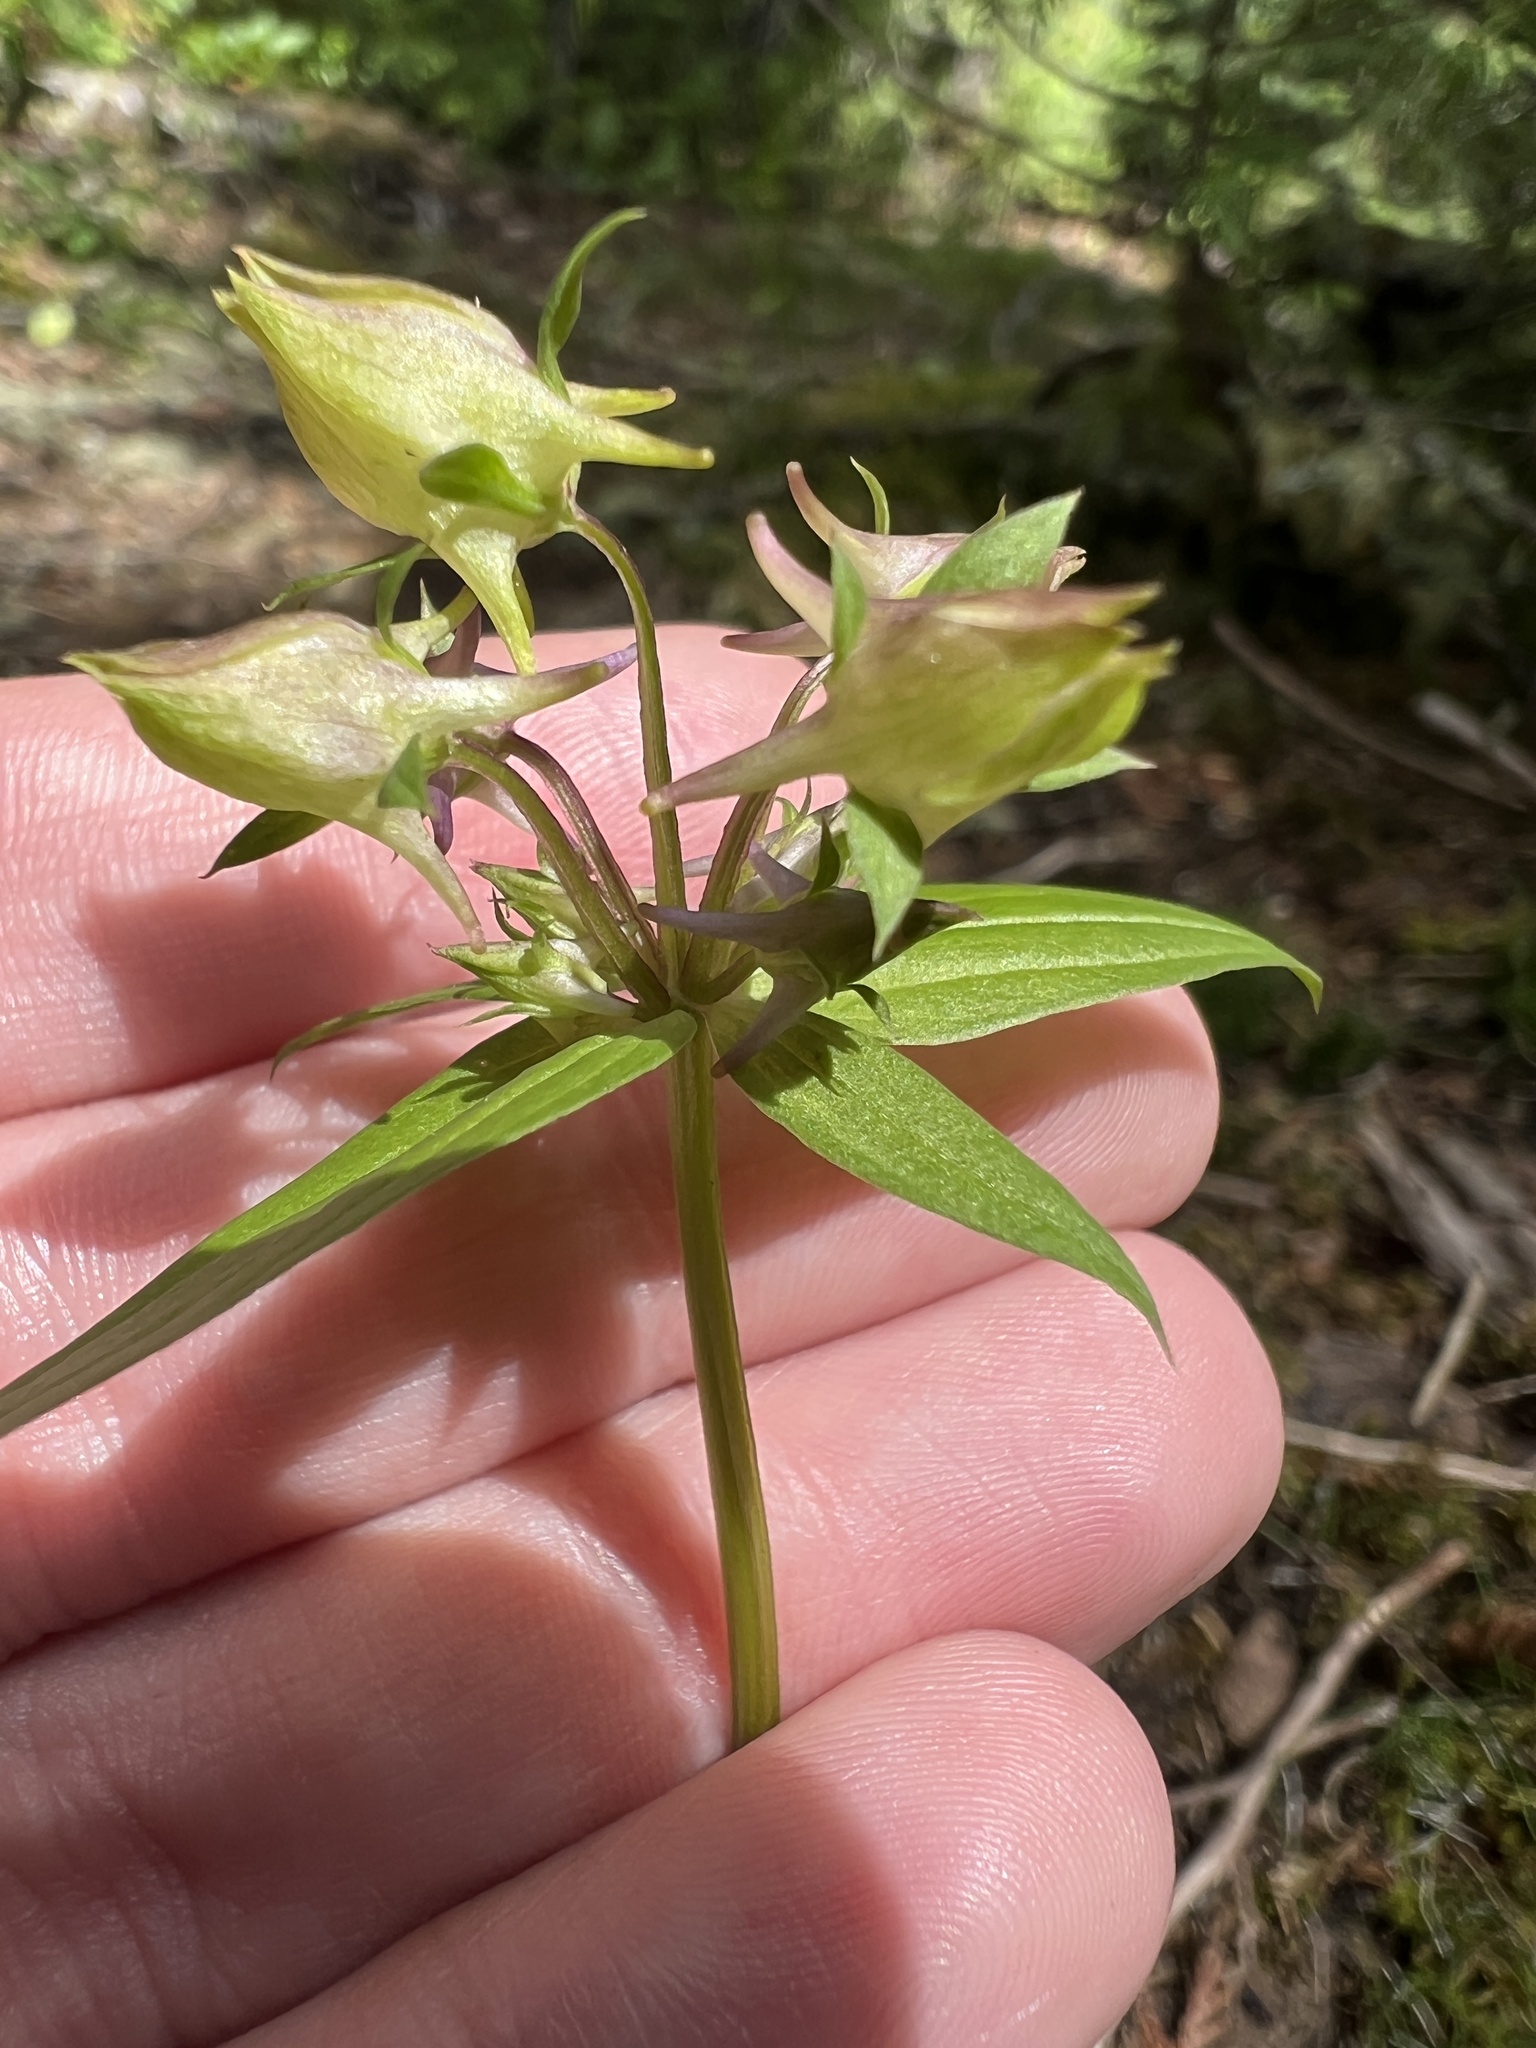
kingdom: Plantae
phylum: Tracheophyta
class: Magnoliopsida
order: Gentianales
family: Gentianaceae
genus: Halenia
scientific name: Halenia deflexa
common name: American spurred gentian
